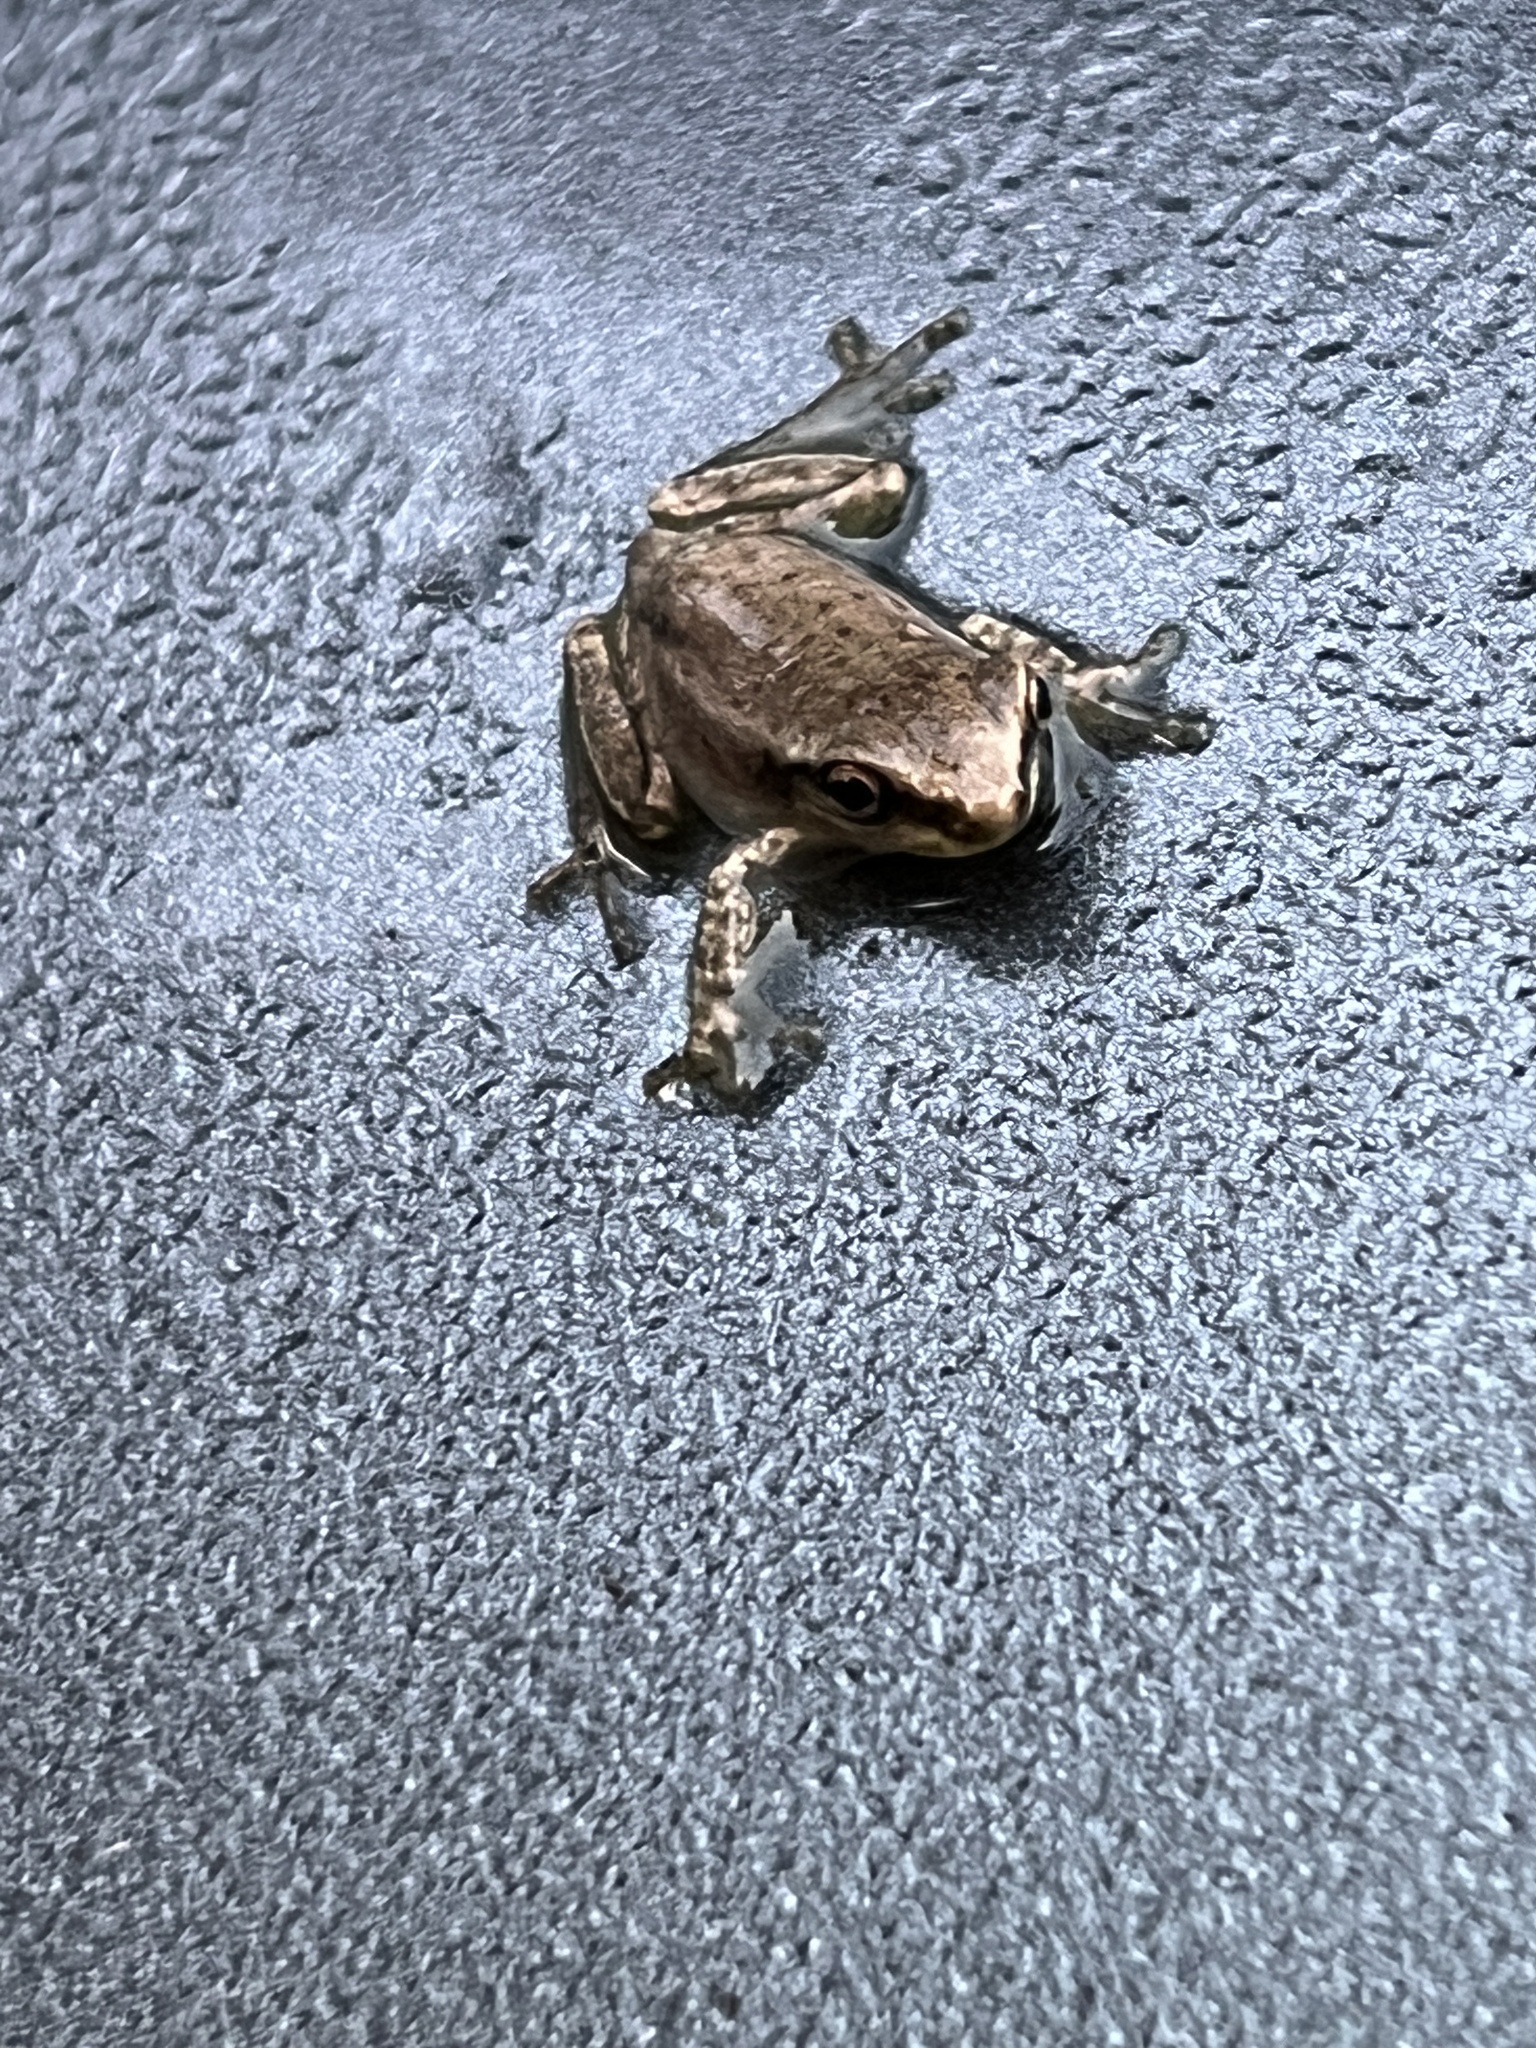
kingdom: Animalia
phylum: Chordata
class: Amphibia
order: Anura
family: Hylidae
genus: Osteopilus
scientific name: Osteopilus septentrionalis
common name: Cuban treefrog
